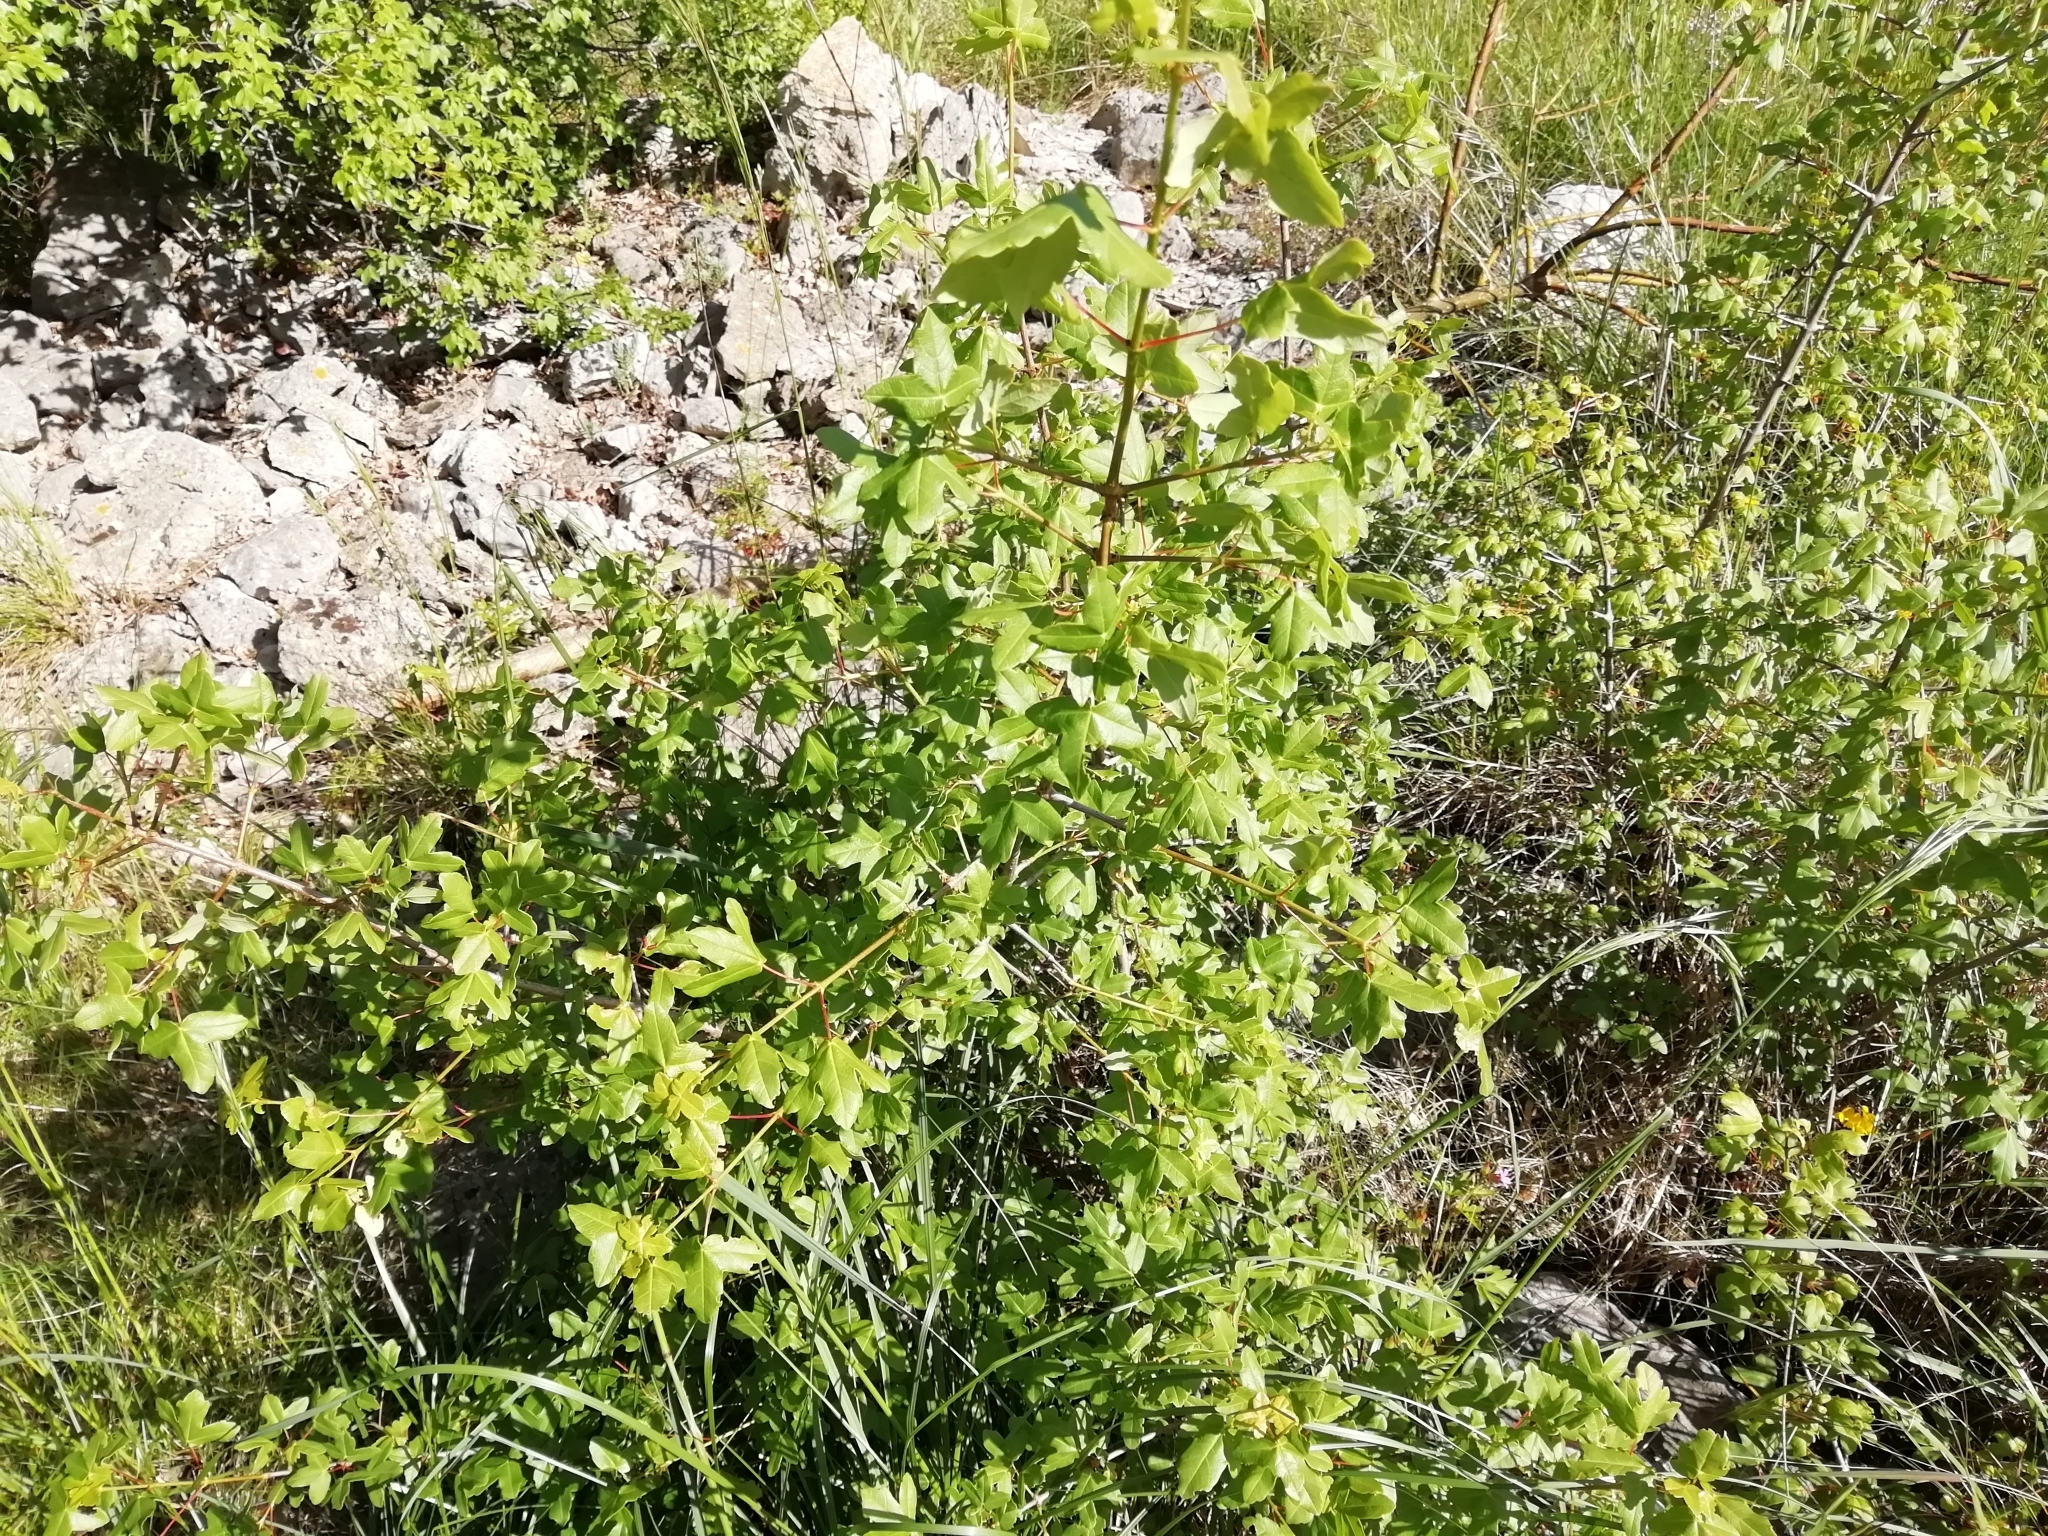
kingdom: Plantae
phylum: Tracheophyta
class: Magnoliopsida
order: Sapindales
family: Sapindaceae
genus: Acer
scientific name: Acer monspessulanum
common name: Montpellier maple
